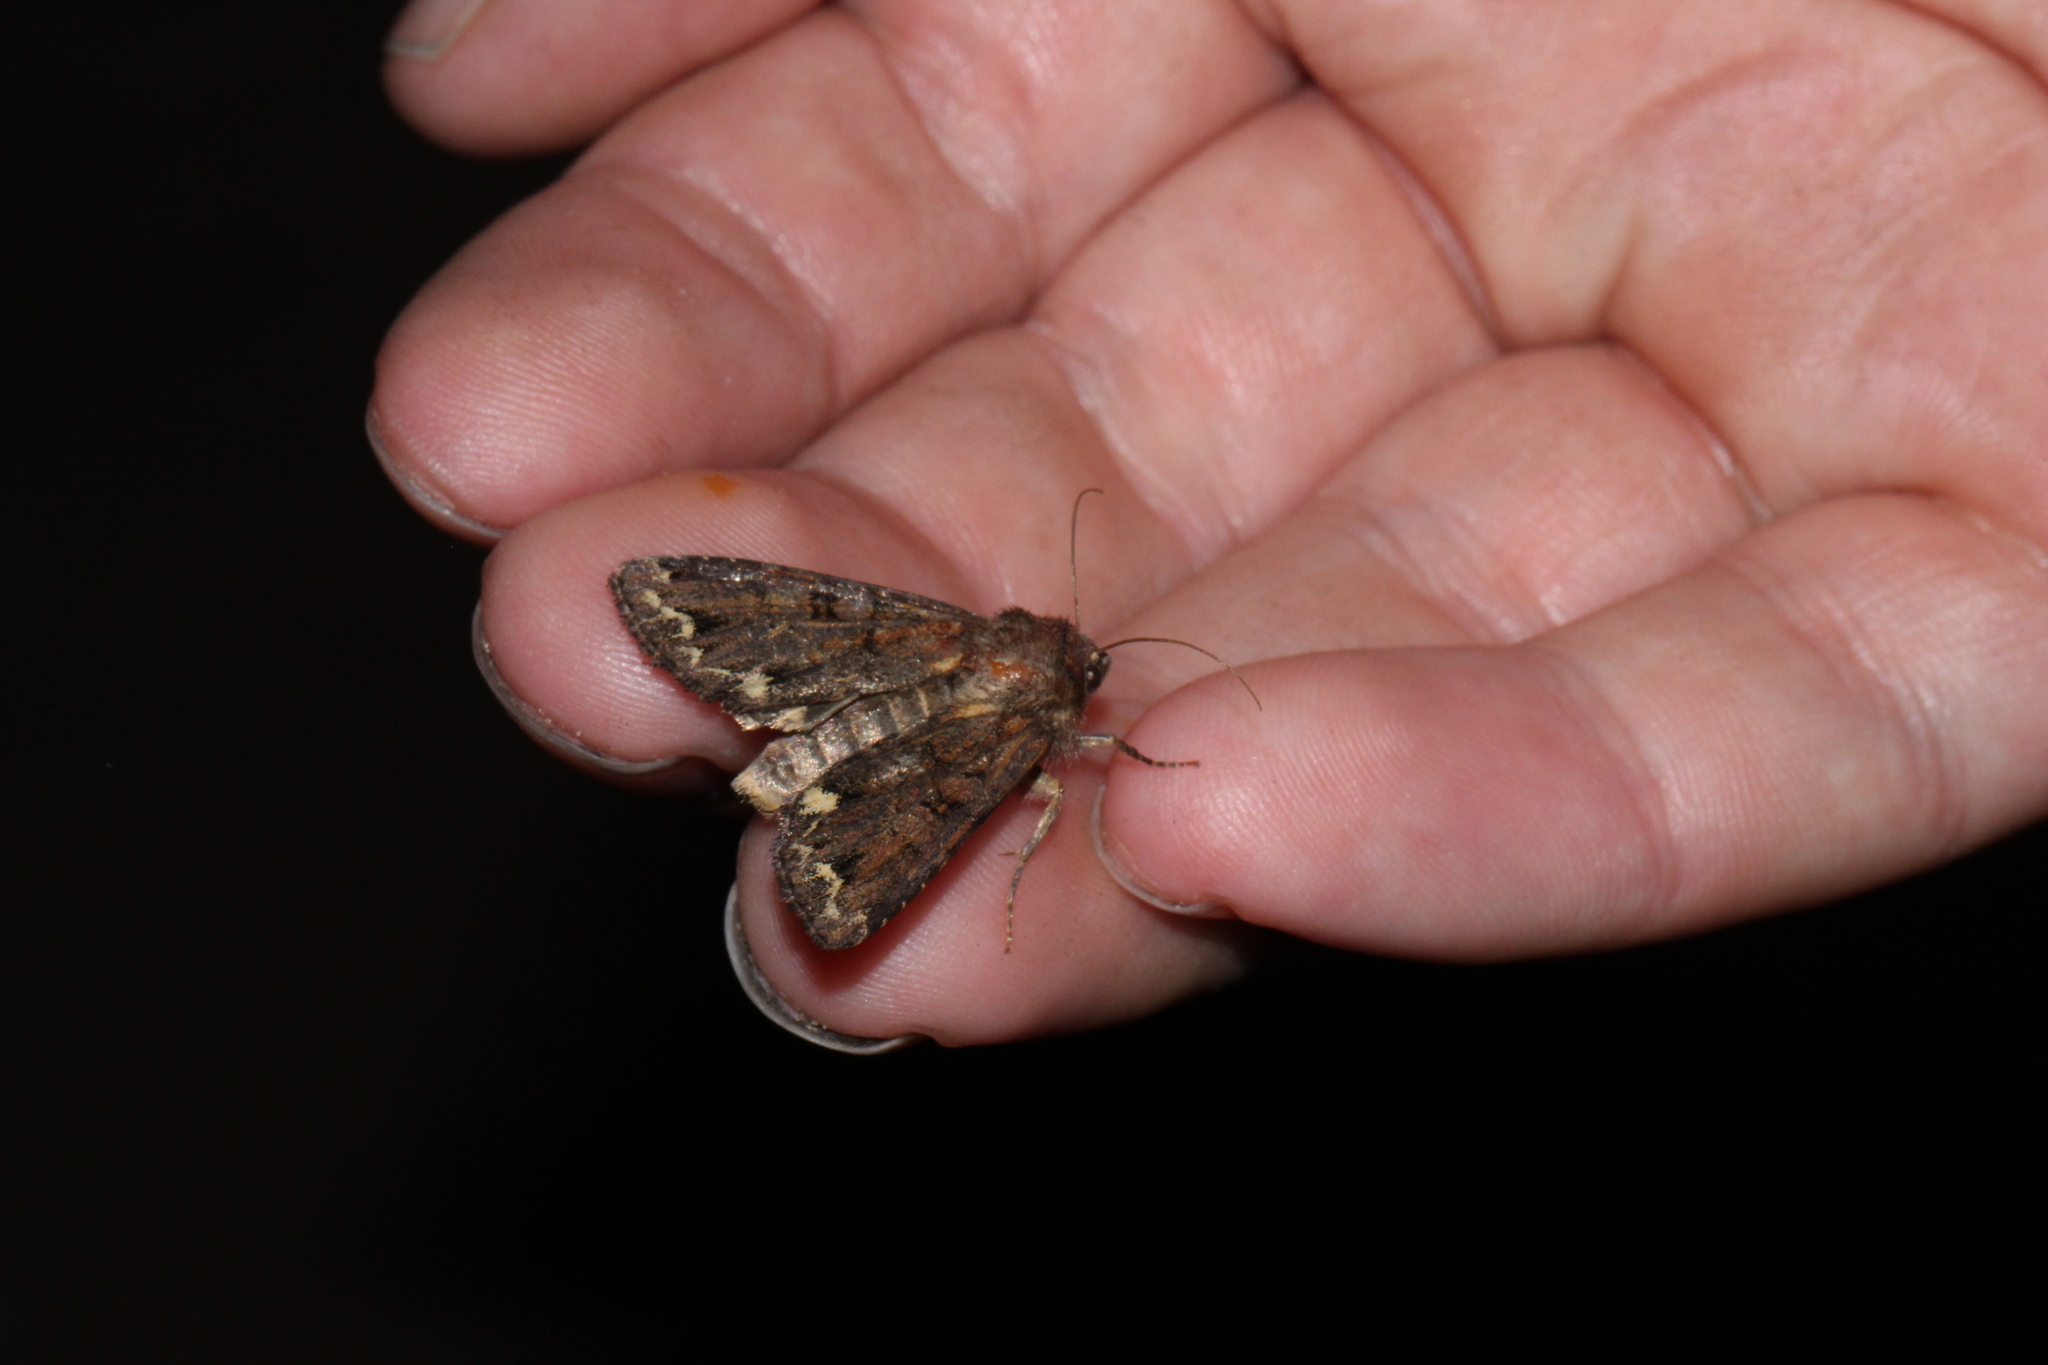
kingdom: Animalia
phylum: Arthropoda
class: Insecta
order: Lepidoptera
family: Noctuidae
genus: Ceramica
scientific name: Ceramica pisi
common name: Broom moth
